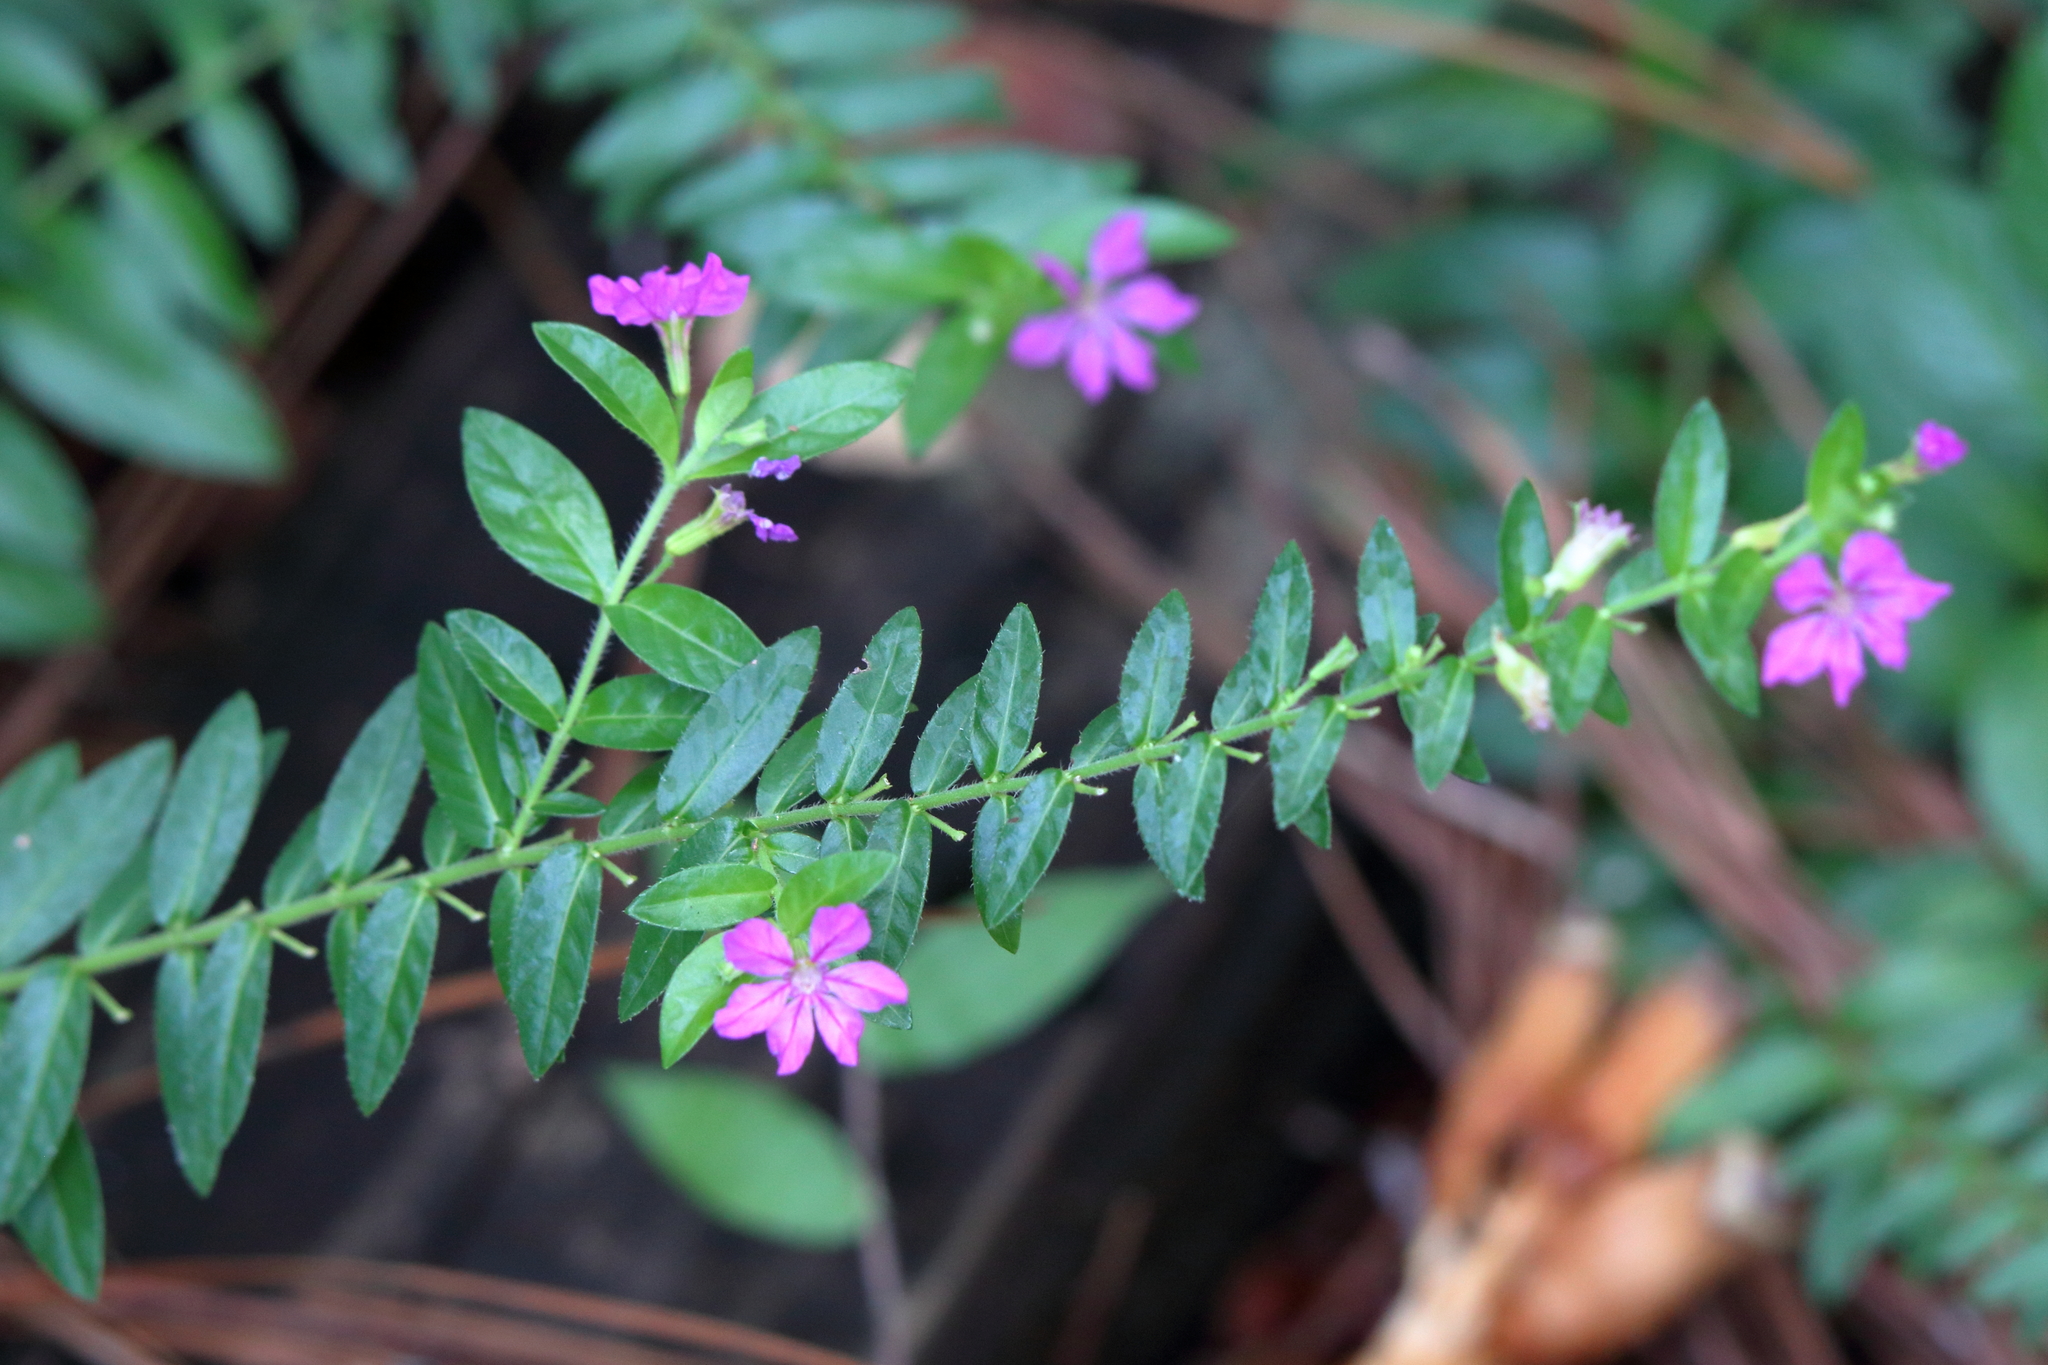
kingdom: Plantae
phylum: Tracheophyta
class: Magnoliopsida
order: Myrtales
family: Lythraceae
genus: Cuphea
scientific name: Cuphea hyssopifolia
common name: False heather
